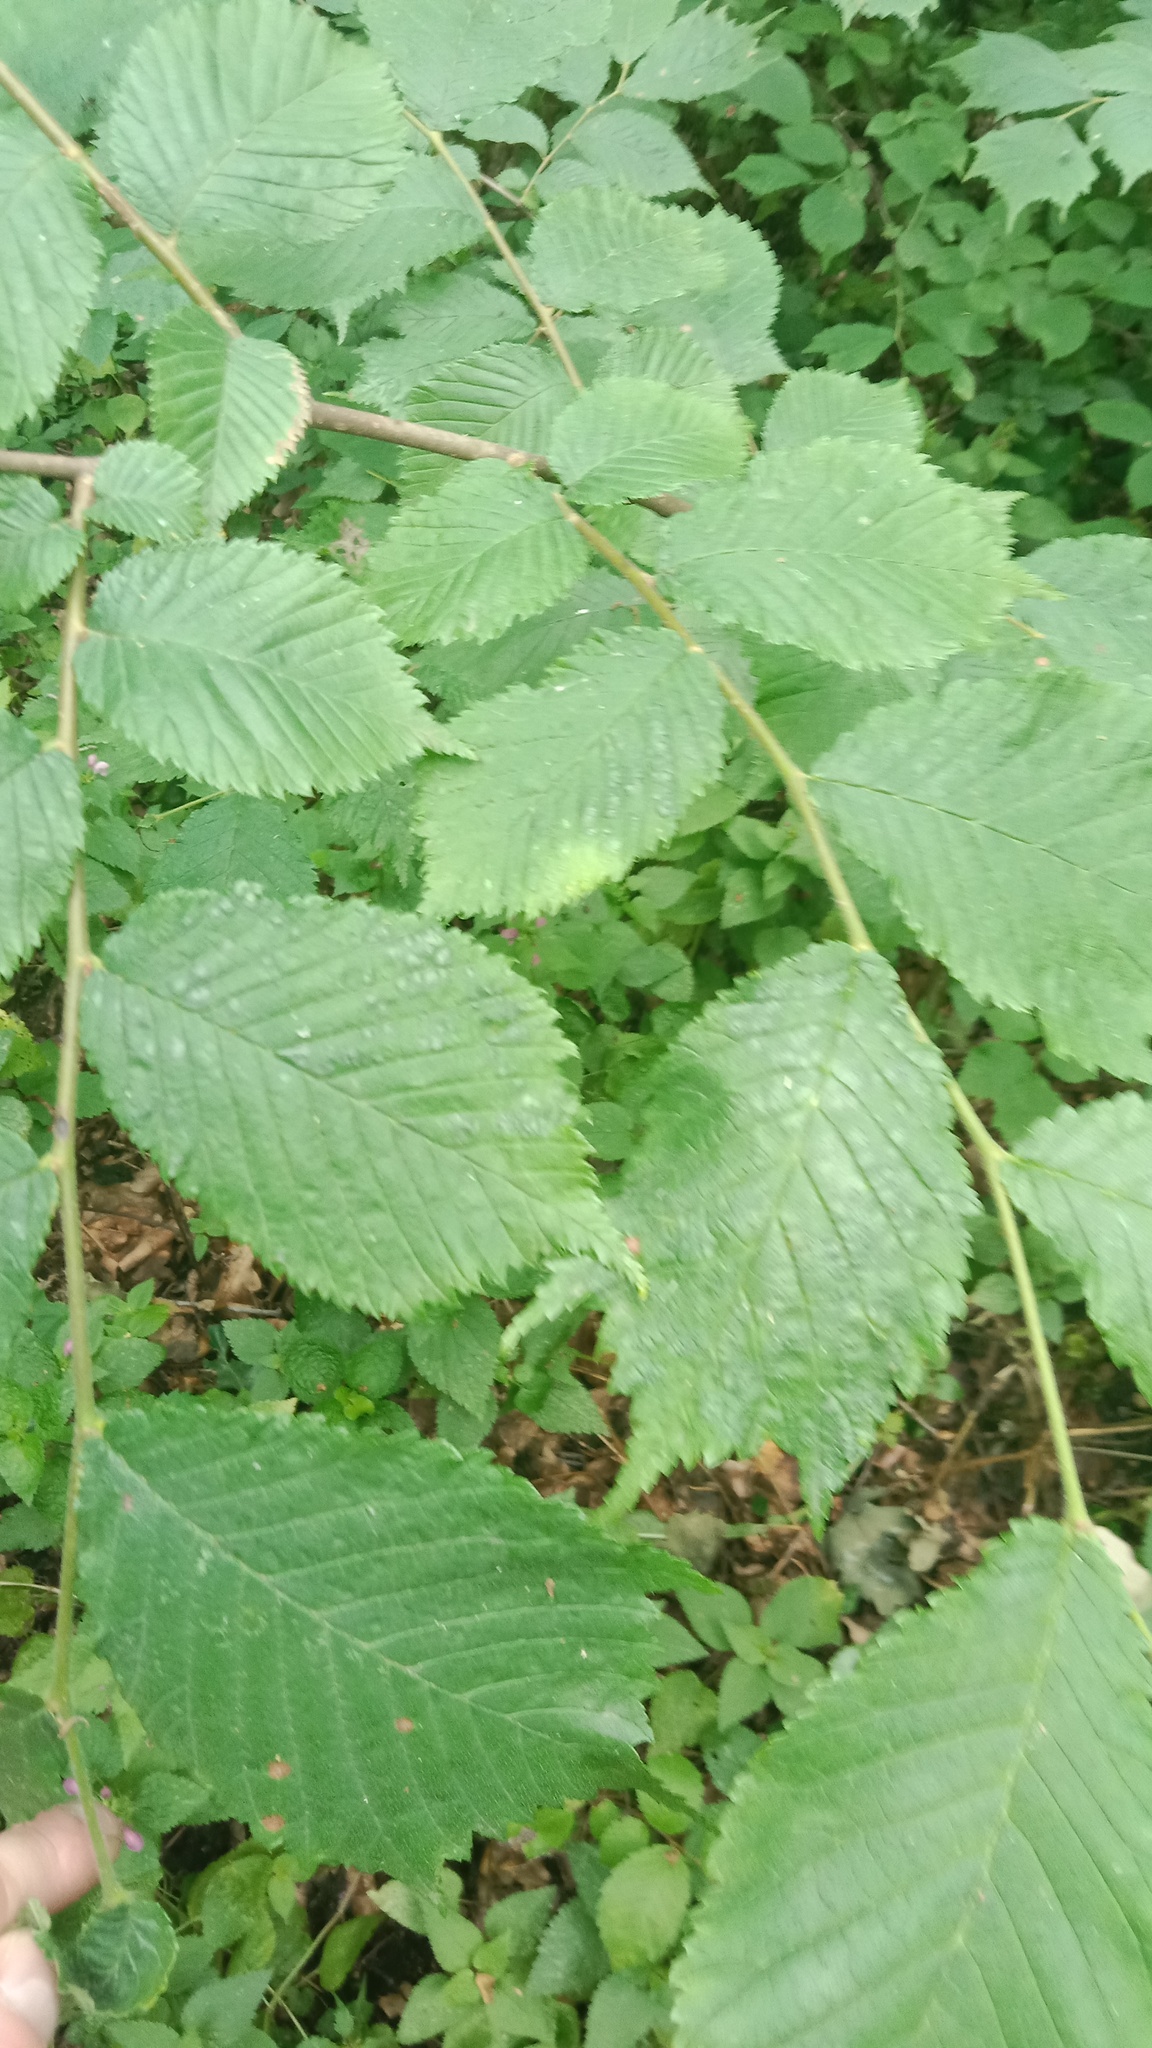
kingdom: Plantae
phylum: Tracheophyta
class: Magnoliopsida
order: Rosales
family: Ulmaceae
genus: Ulmus
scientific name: Ulmus glabra
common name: Wych elm
